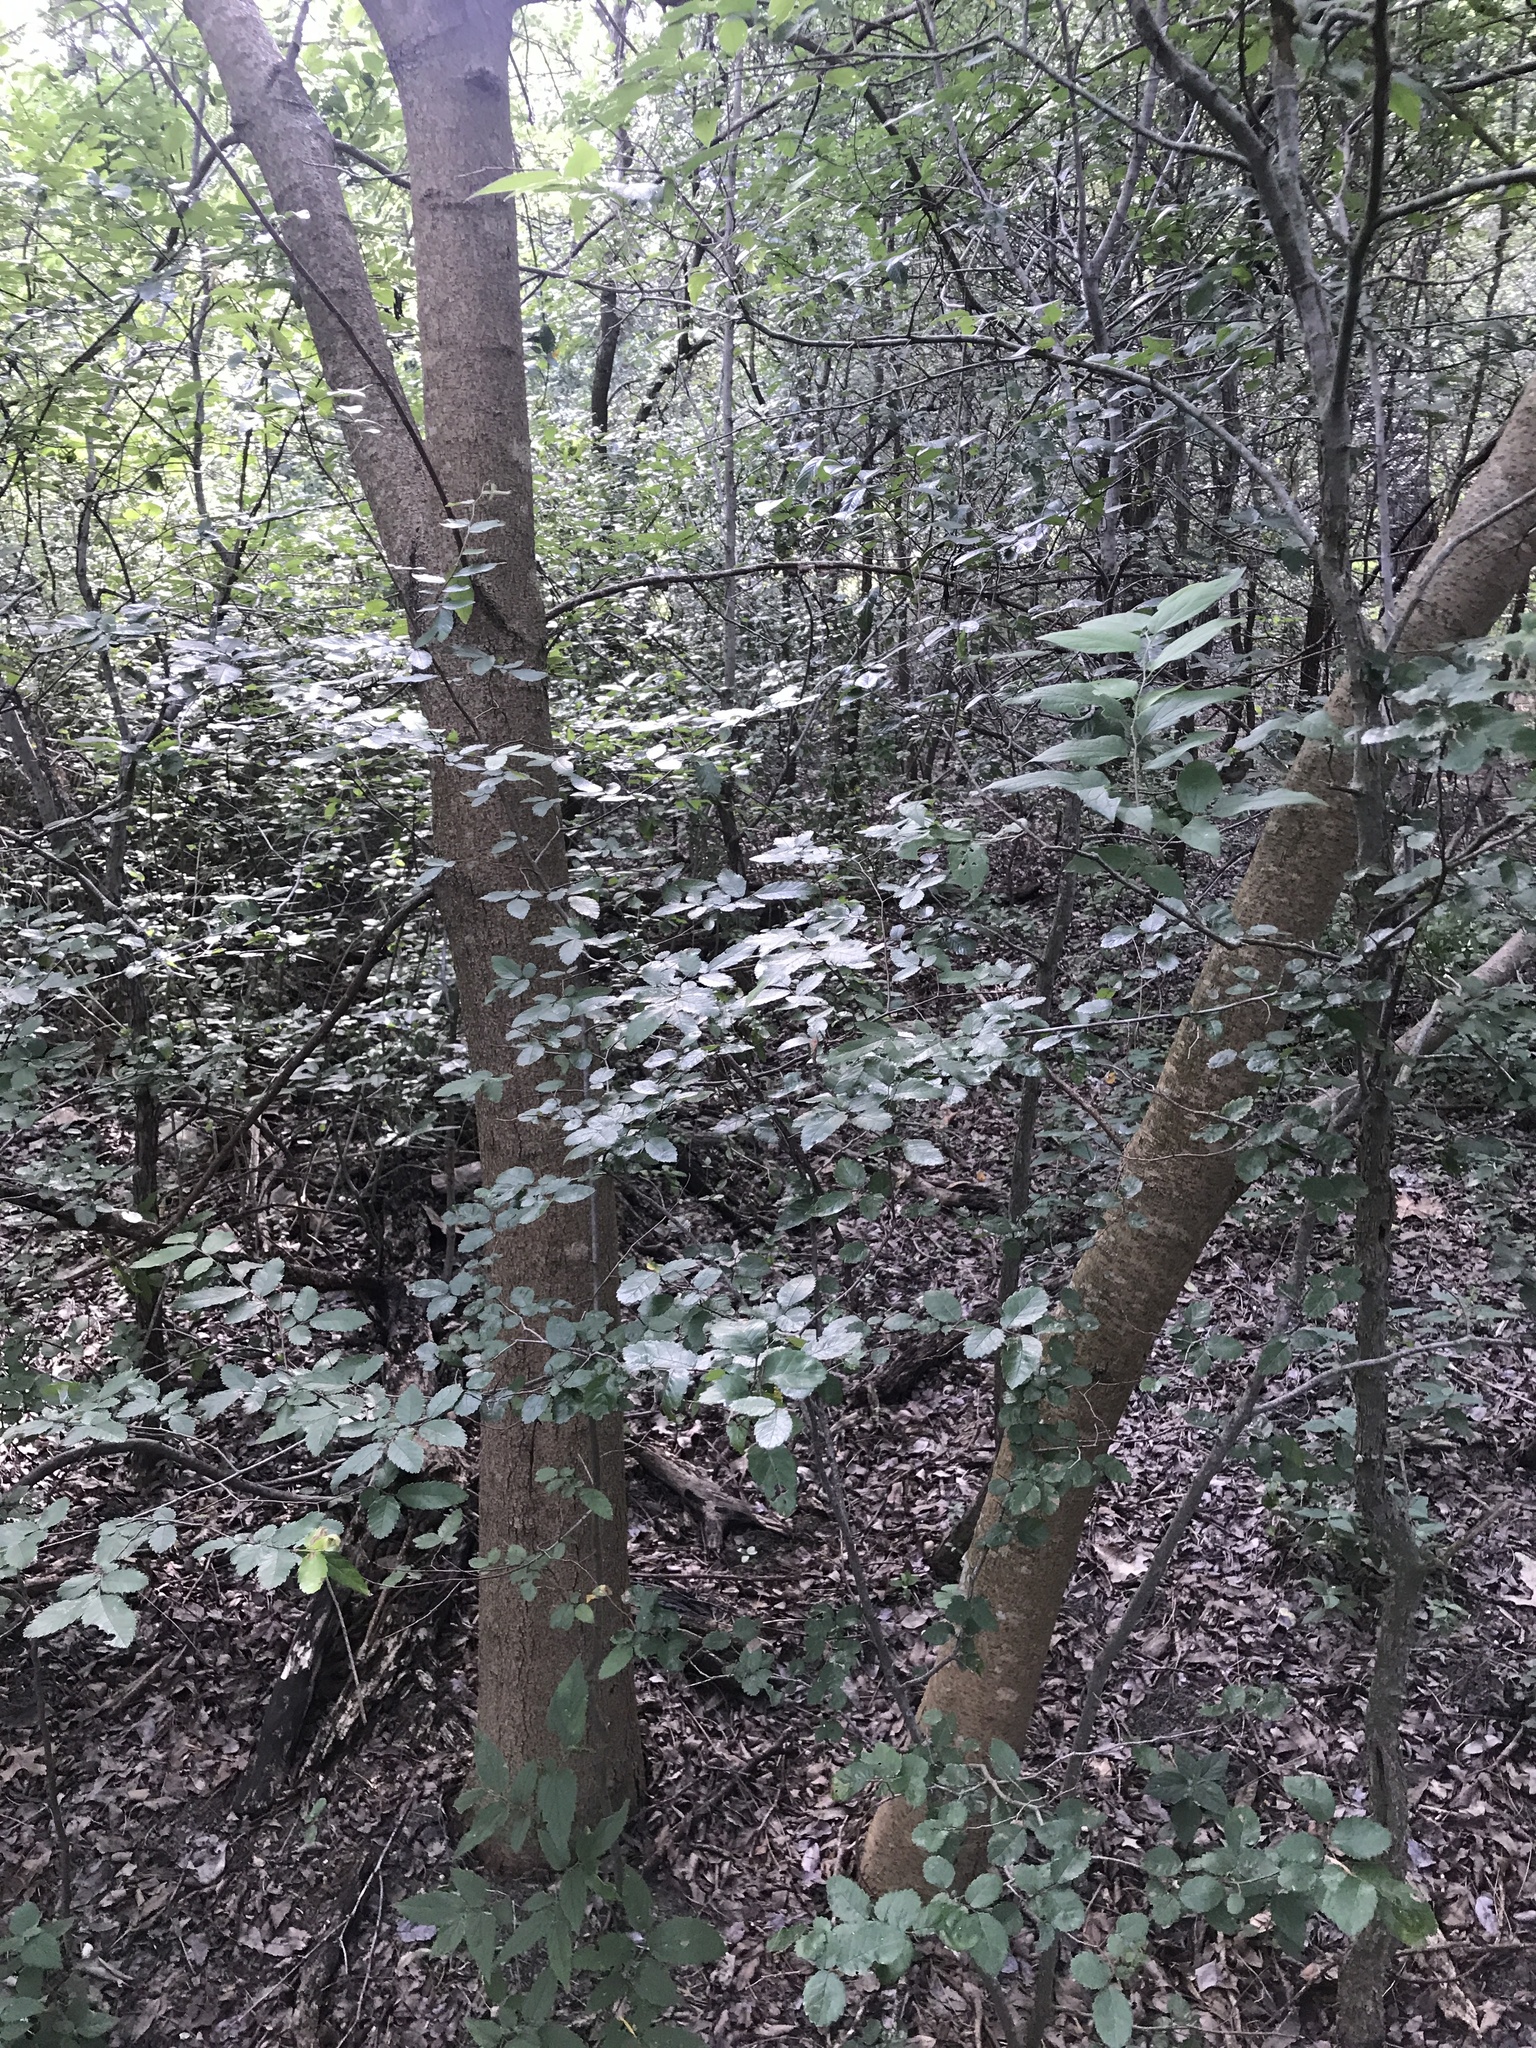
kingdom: Plantae
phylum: Tracheophyta
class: Magnoliopsida
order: Sapindales
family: Anacardiaceae
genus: Pistacia
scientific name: Pistacia chinensis
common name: Chinese pistache
